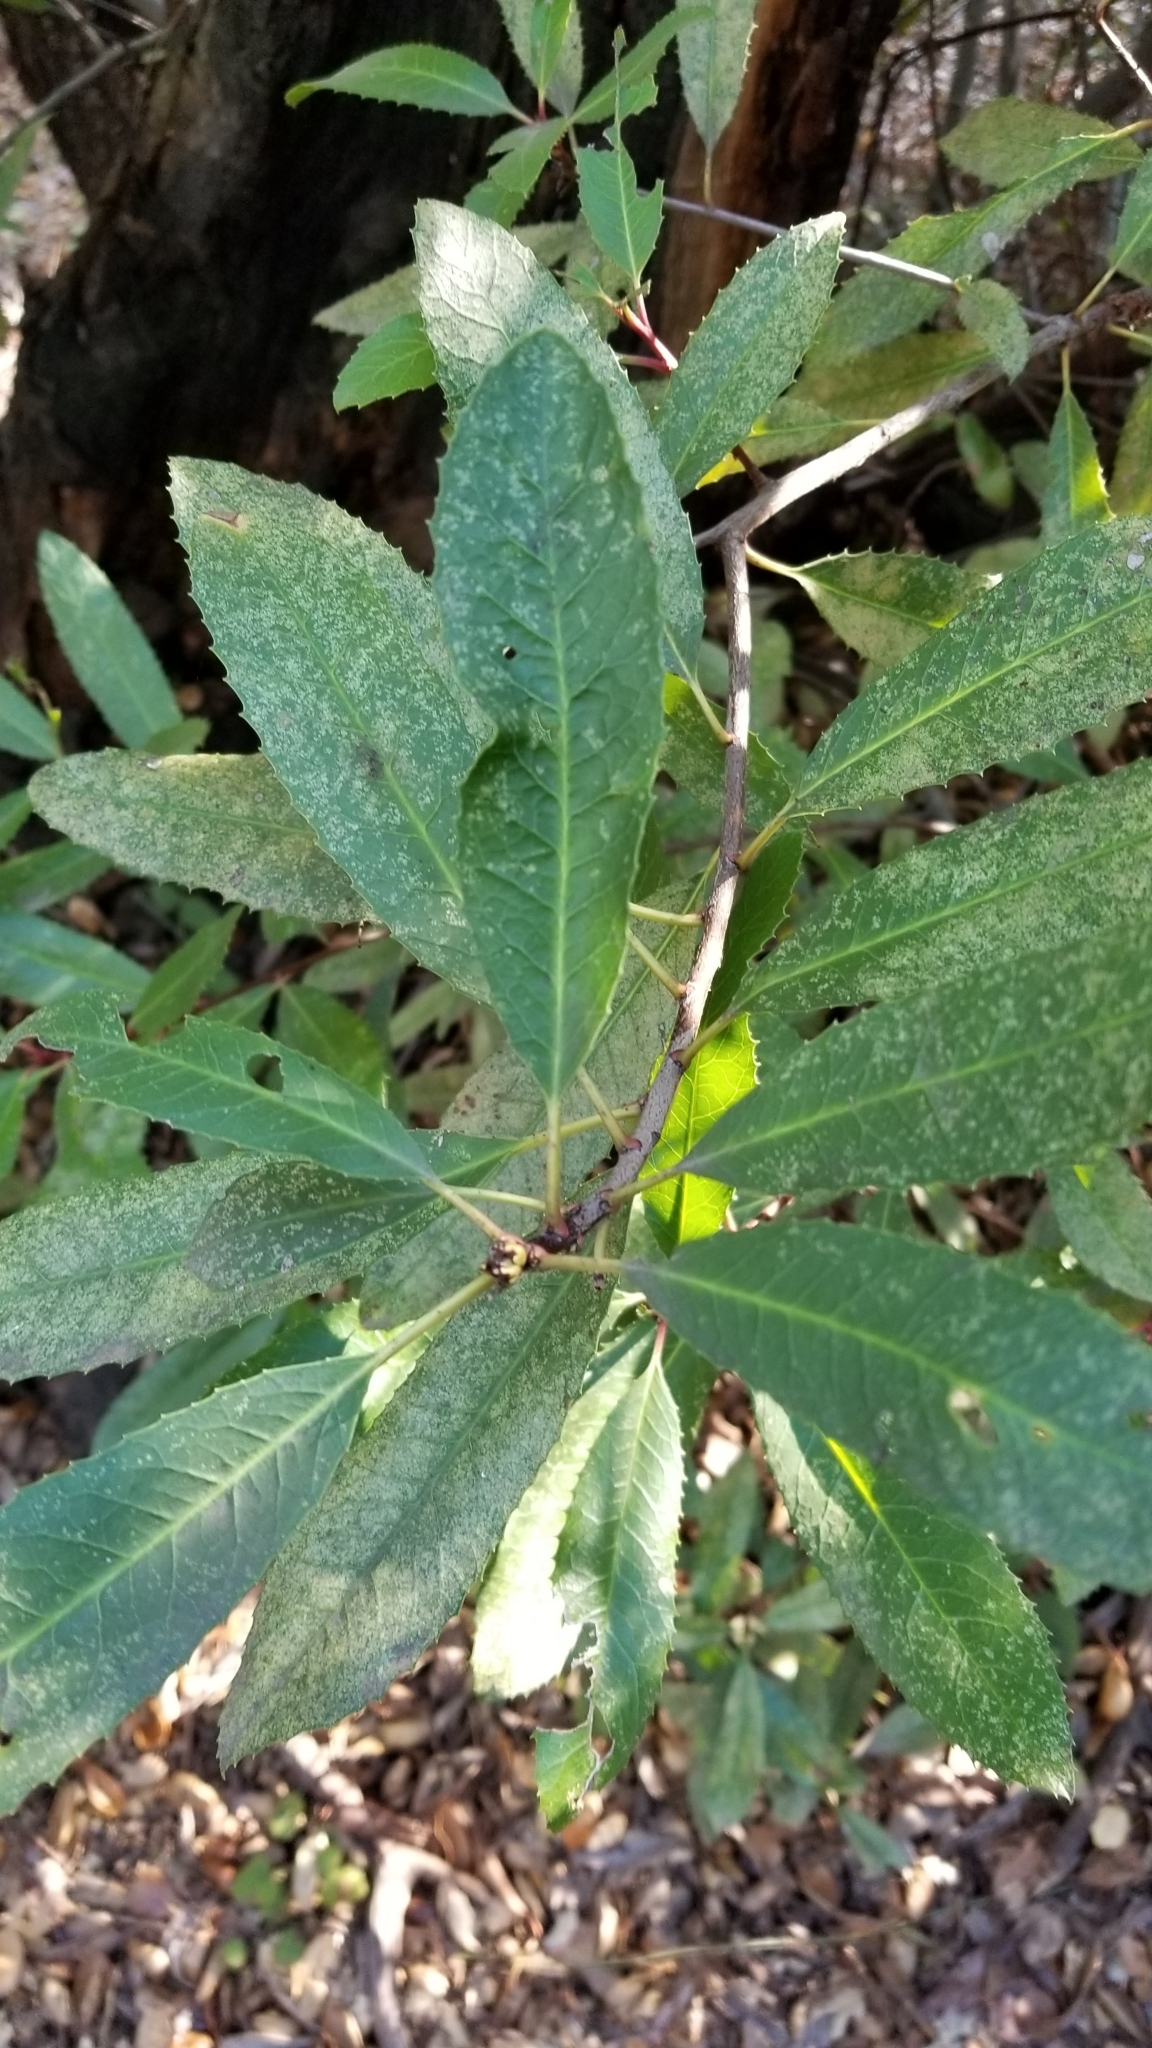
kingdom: Plantae
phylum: Tracheophyta
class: Magnoliopsida
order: Rosales
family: Rosaceae
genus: Heteromeles
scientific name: Heteromeles arbutifolia
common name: California-holly
